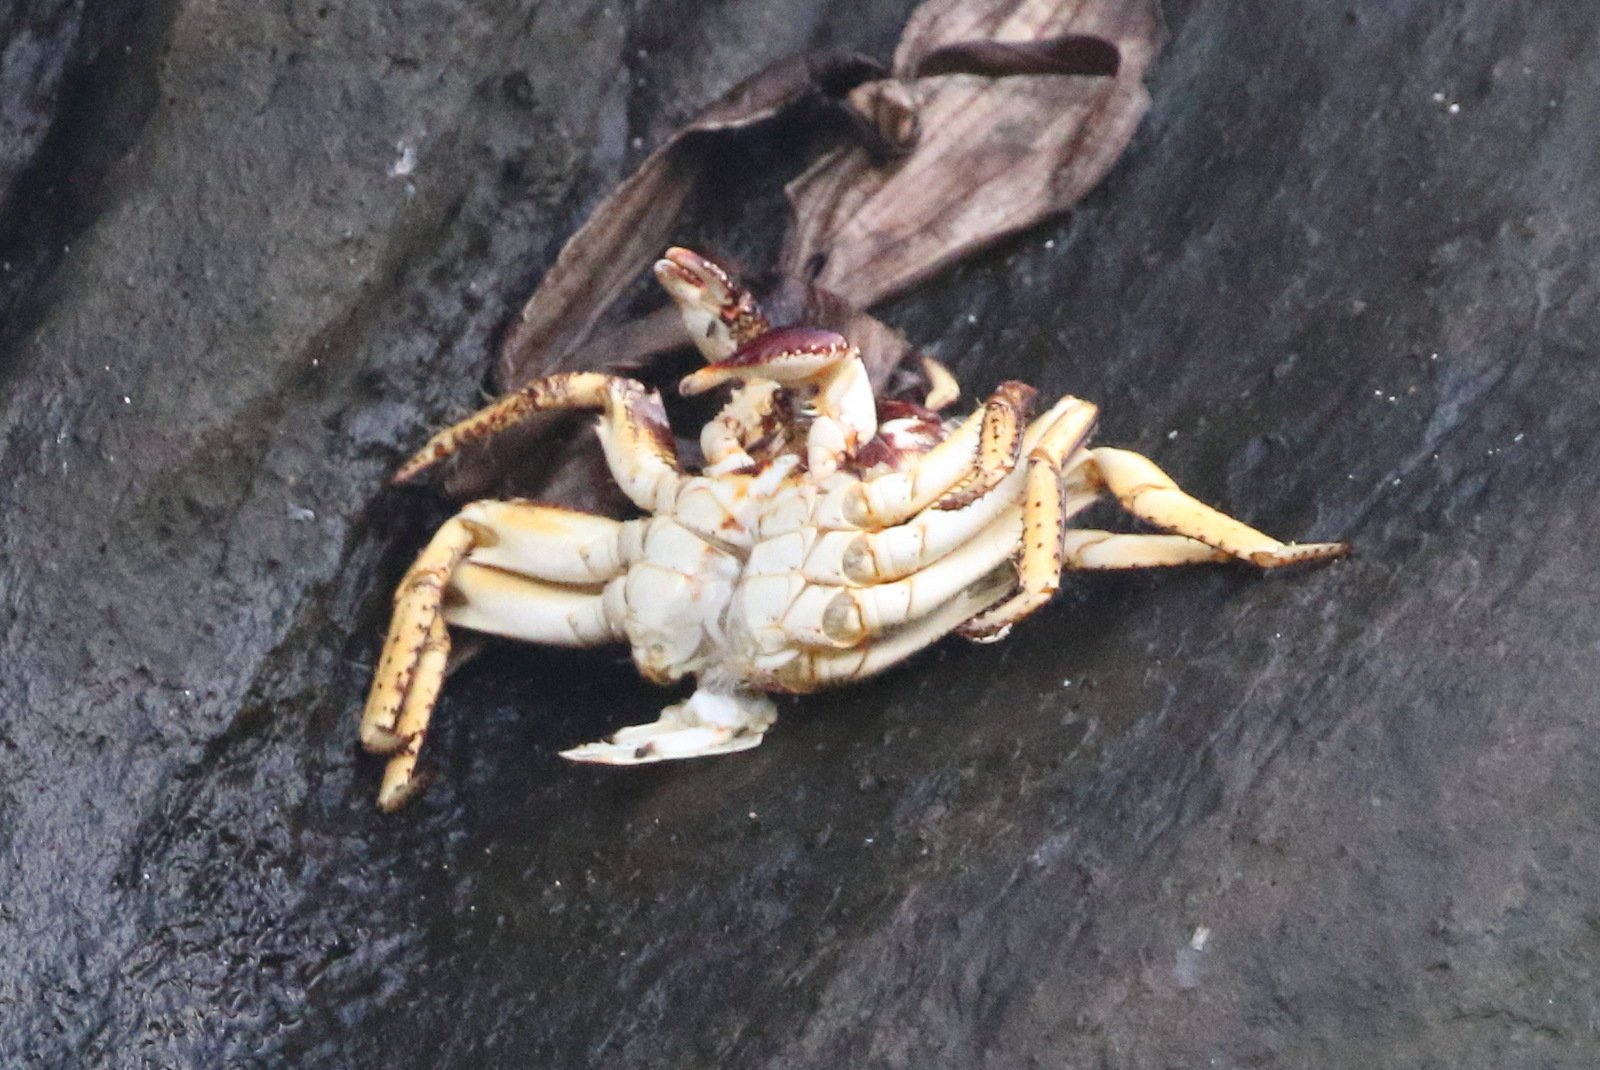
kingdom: Animalia
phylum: Arthropoda
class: Malacostraca
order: Decapoda
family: Grapsidae
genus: Grapsus
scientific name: Grapsus tenuicrustatus
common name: Natal lightfoot crab
